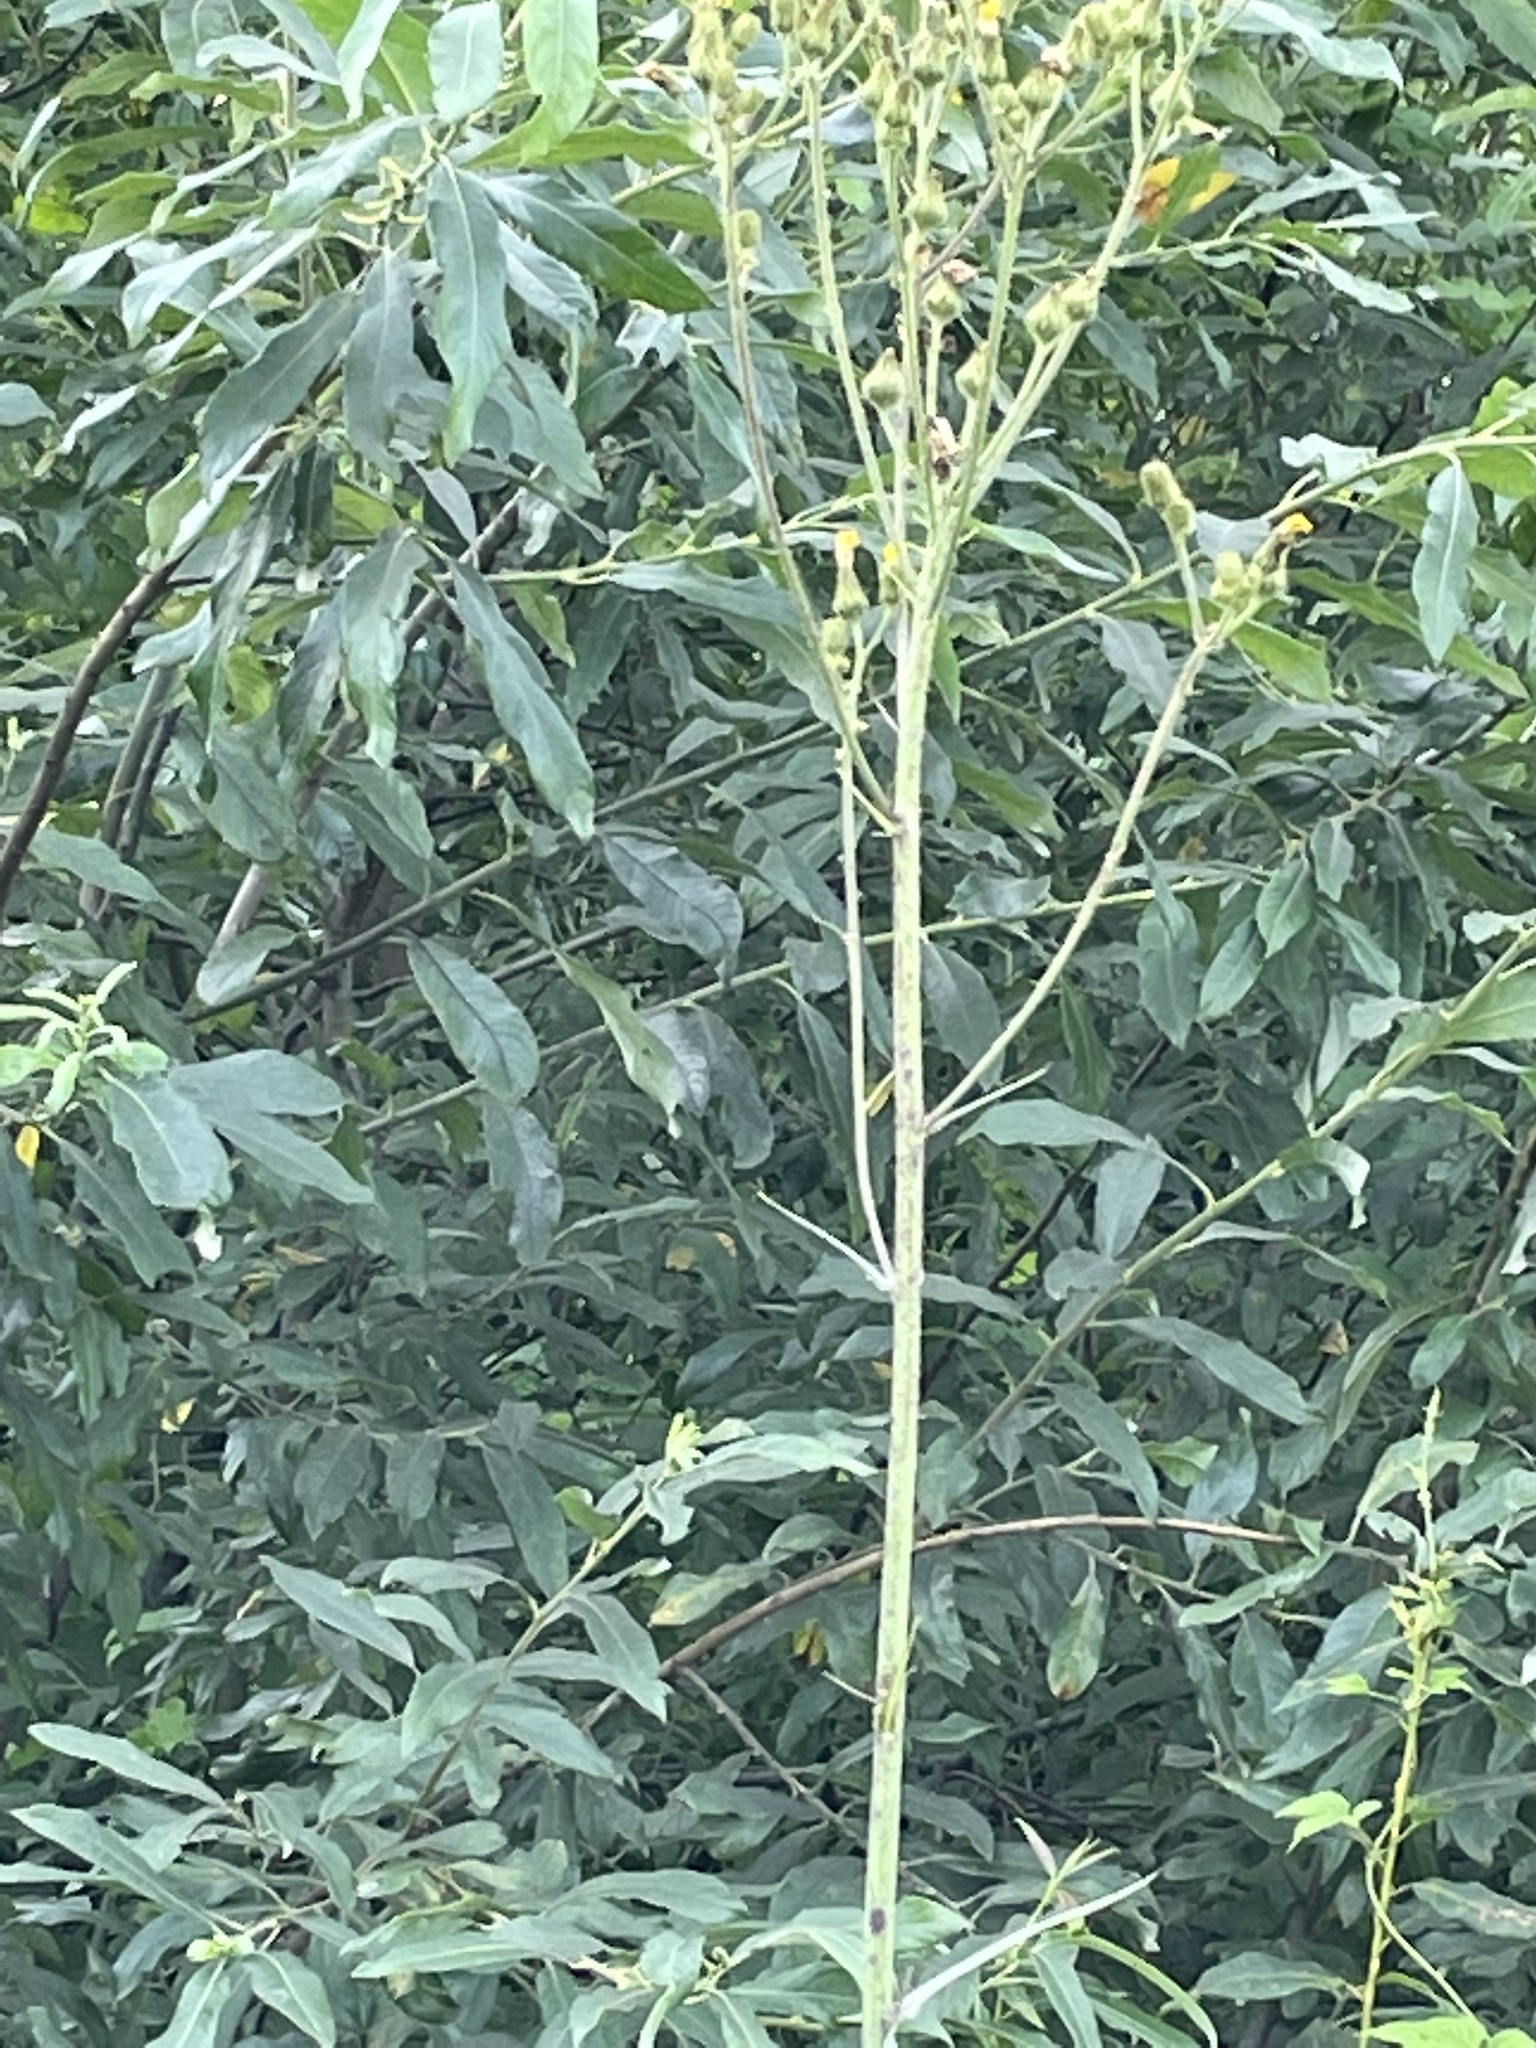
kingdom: Plantae
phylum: Tracheophyta
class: Magnoliopsida
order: Asterales
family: Asteraceae
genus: Sonchus
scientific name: Sonchus palustris
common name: Marsh sow-thistle
